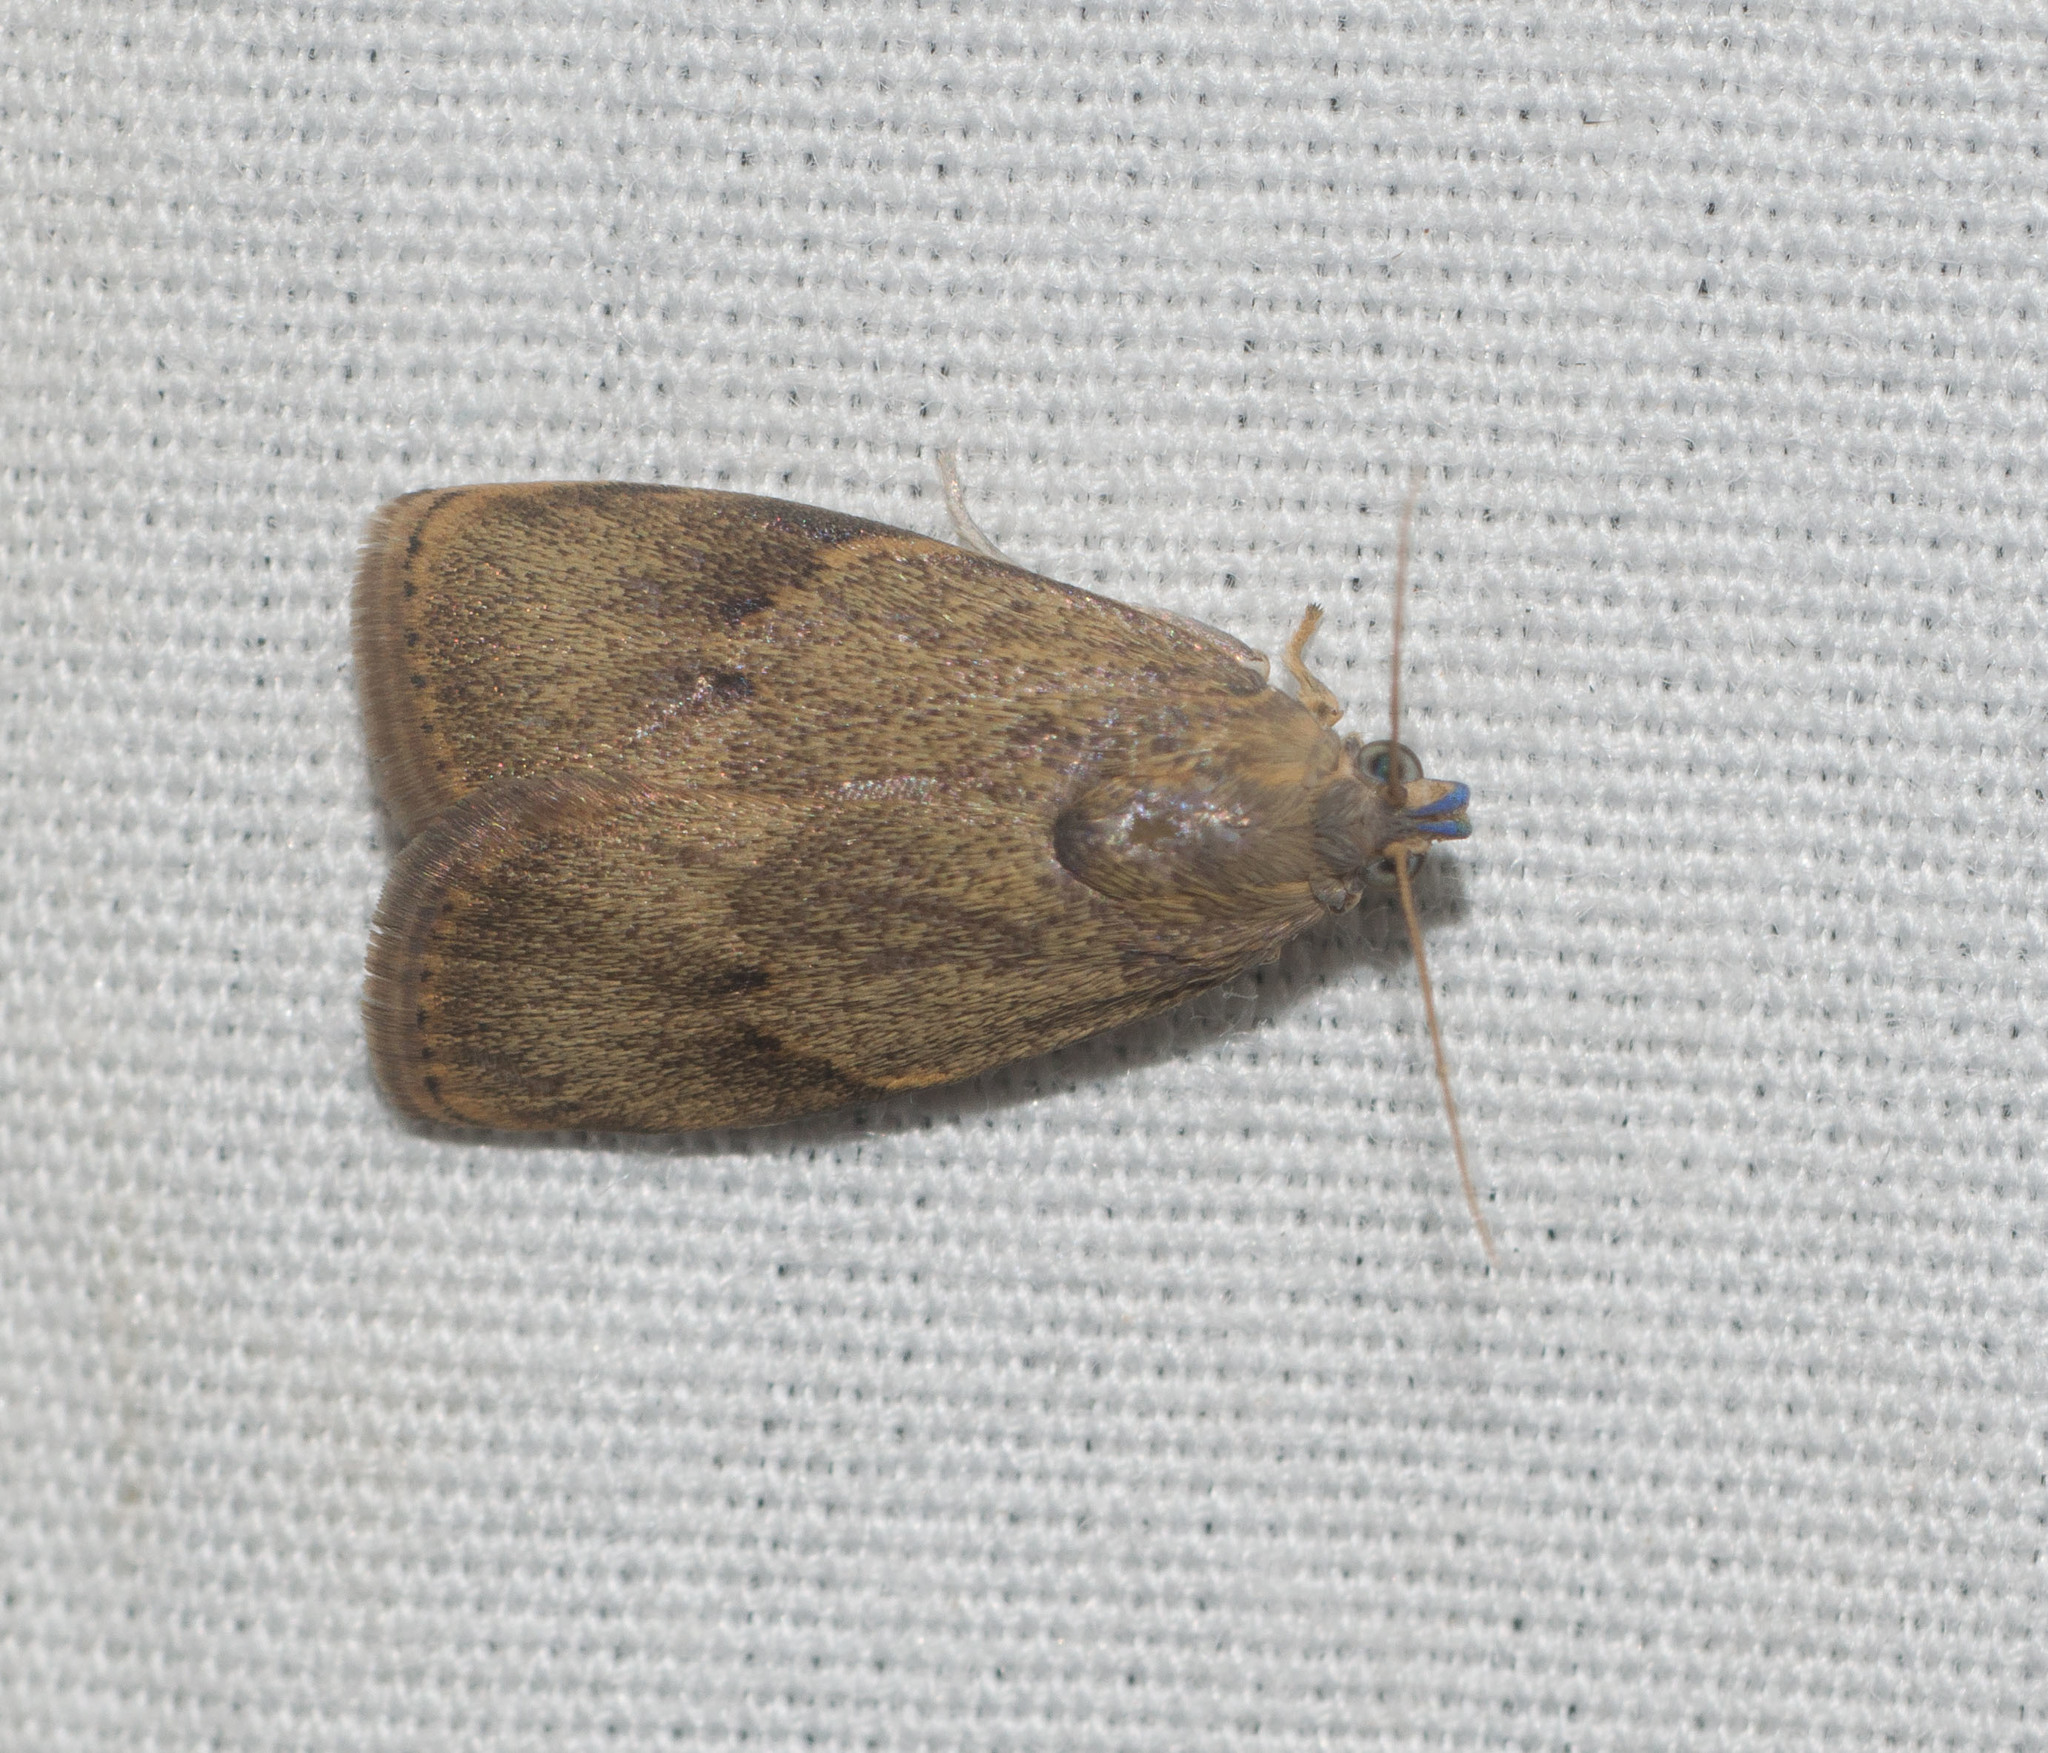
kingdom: Animalia
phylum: Arthropoda
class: Insecta
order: Lepidoptera
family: Immidae
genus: Imma
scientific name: Imma mylias
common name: Moth
